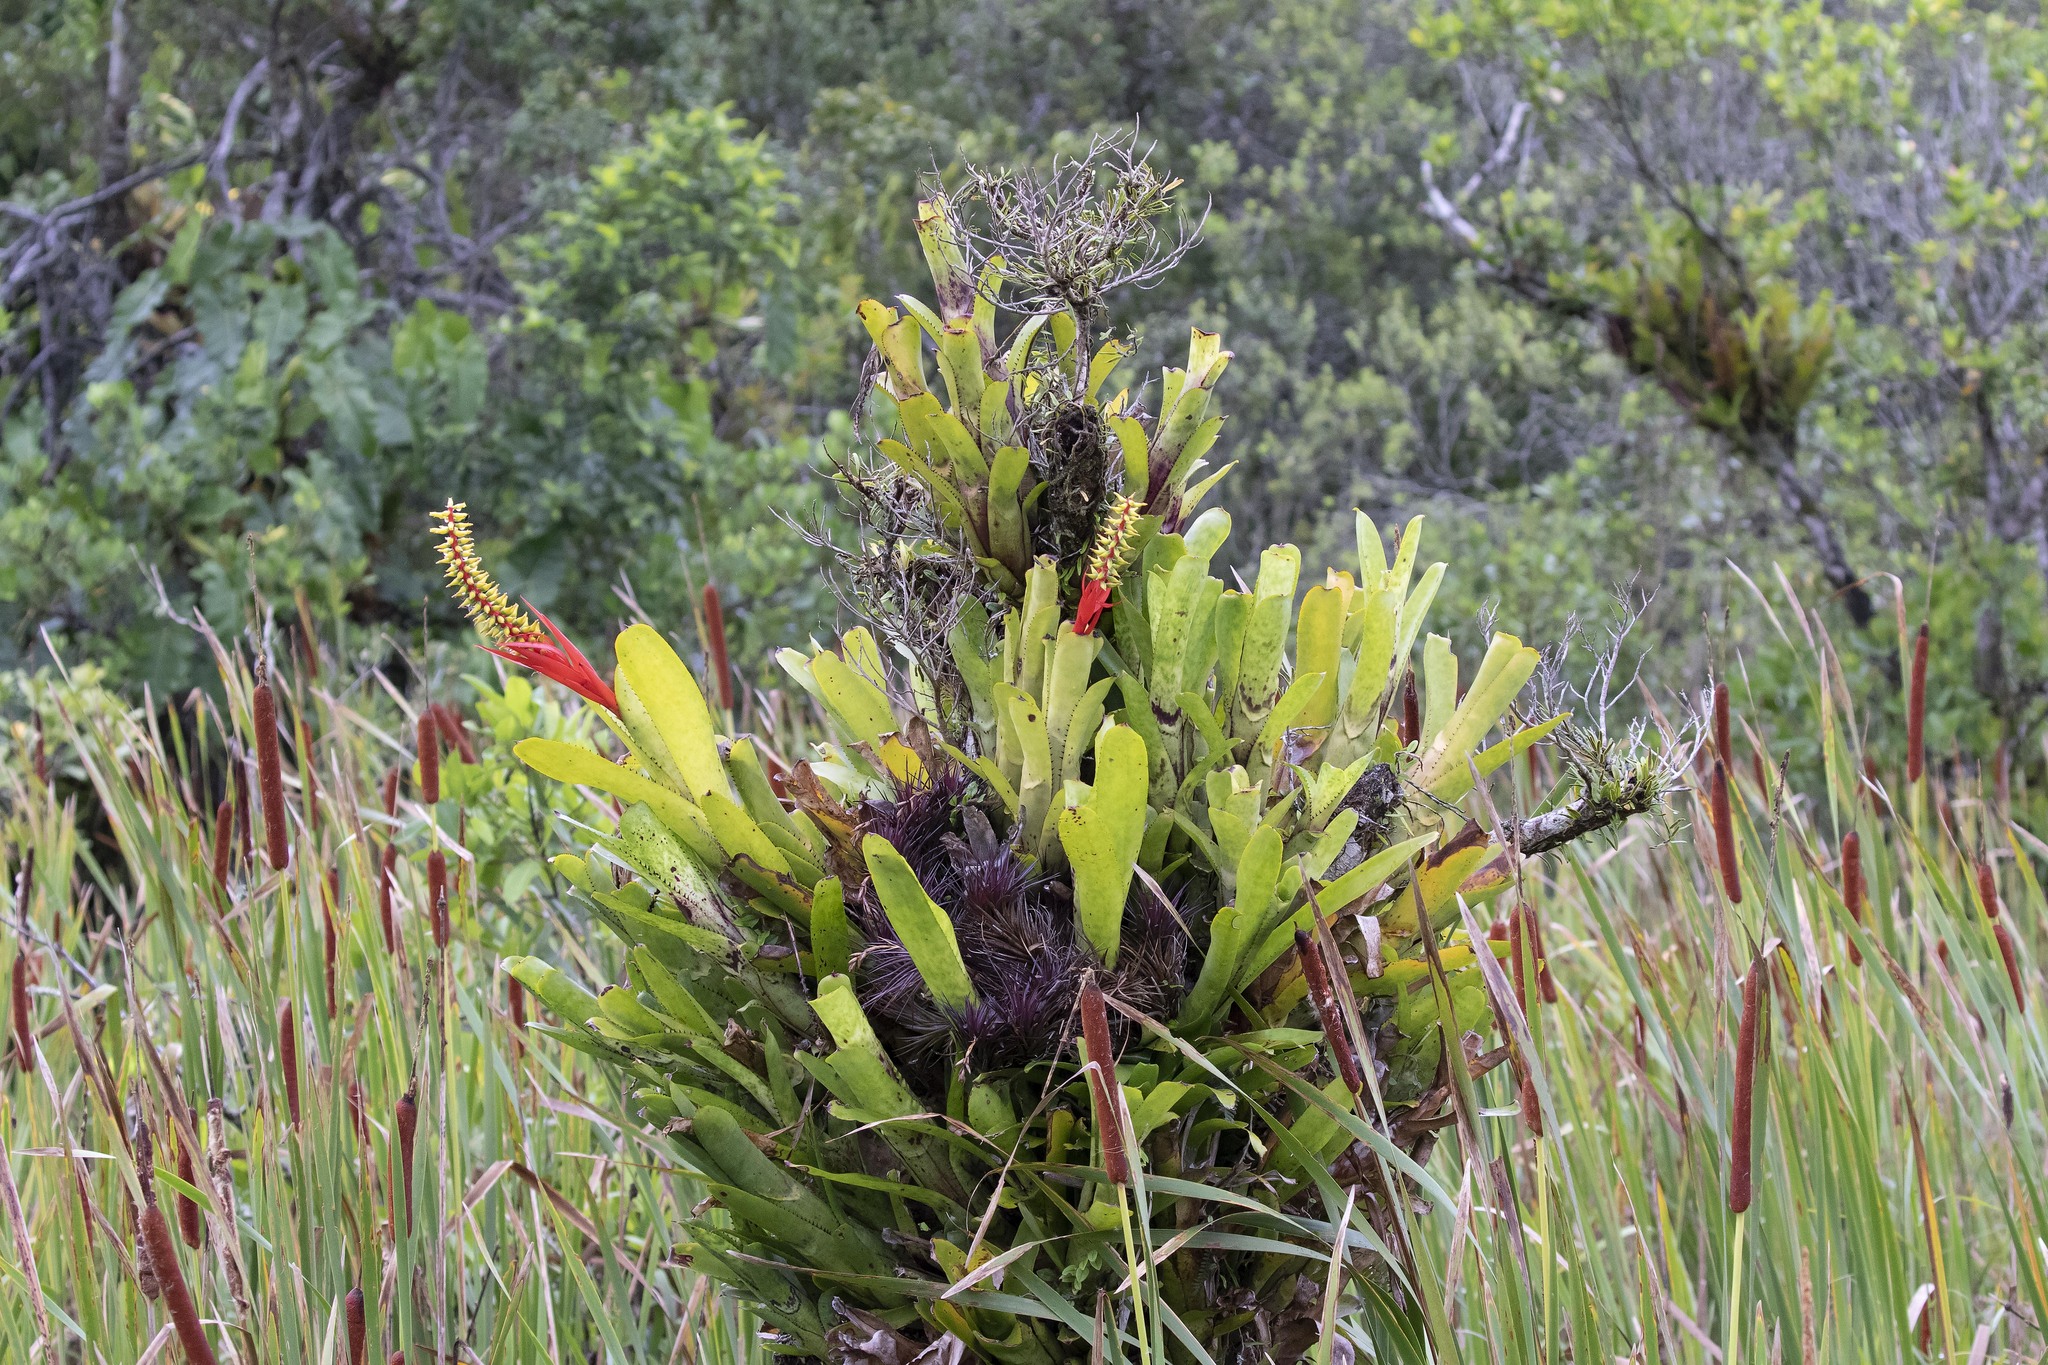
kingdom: Plantae
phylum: Tracheophyta
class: Liliopsida
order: Poales
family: Bromeliaceae
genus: Aechmea
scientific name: Aechmea nudicaulis
